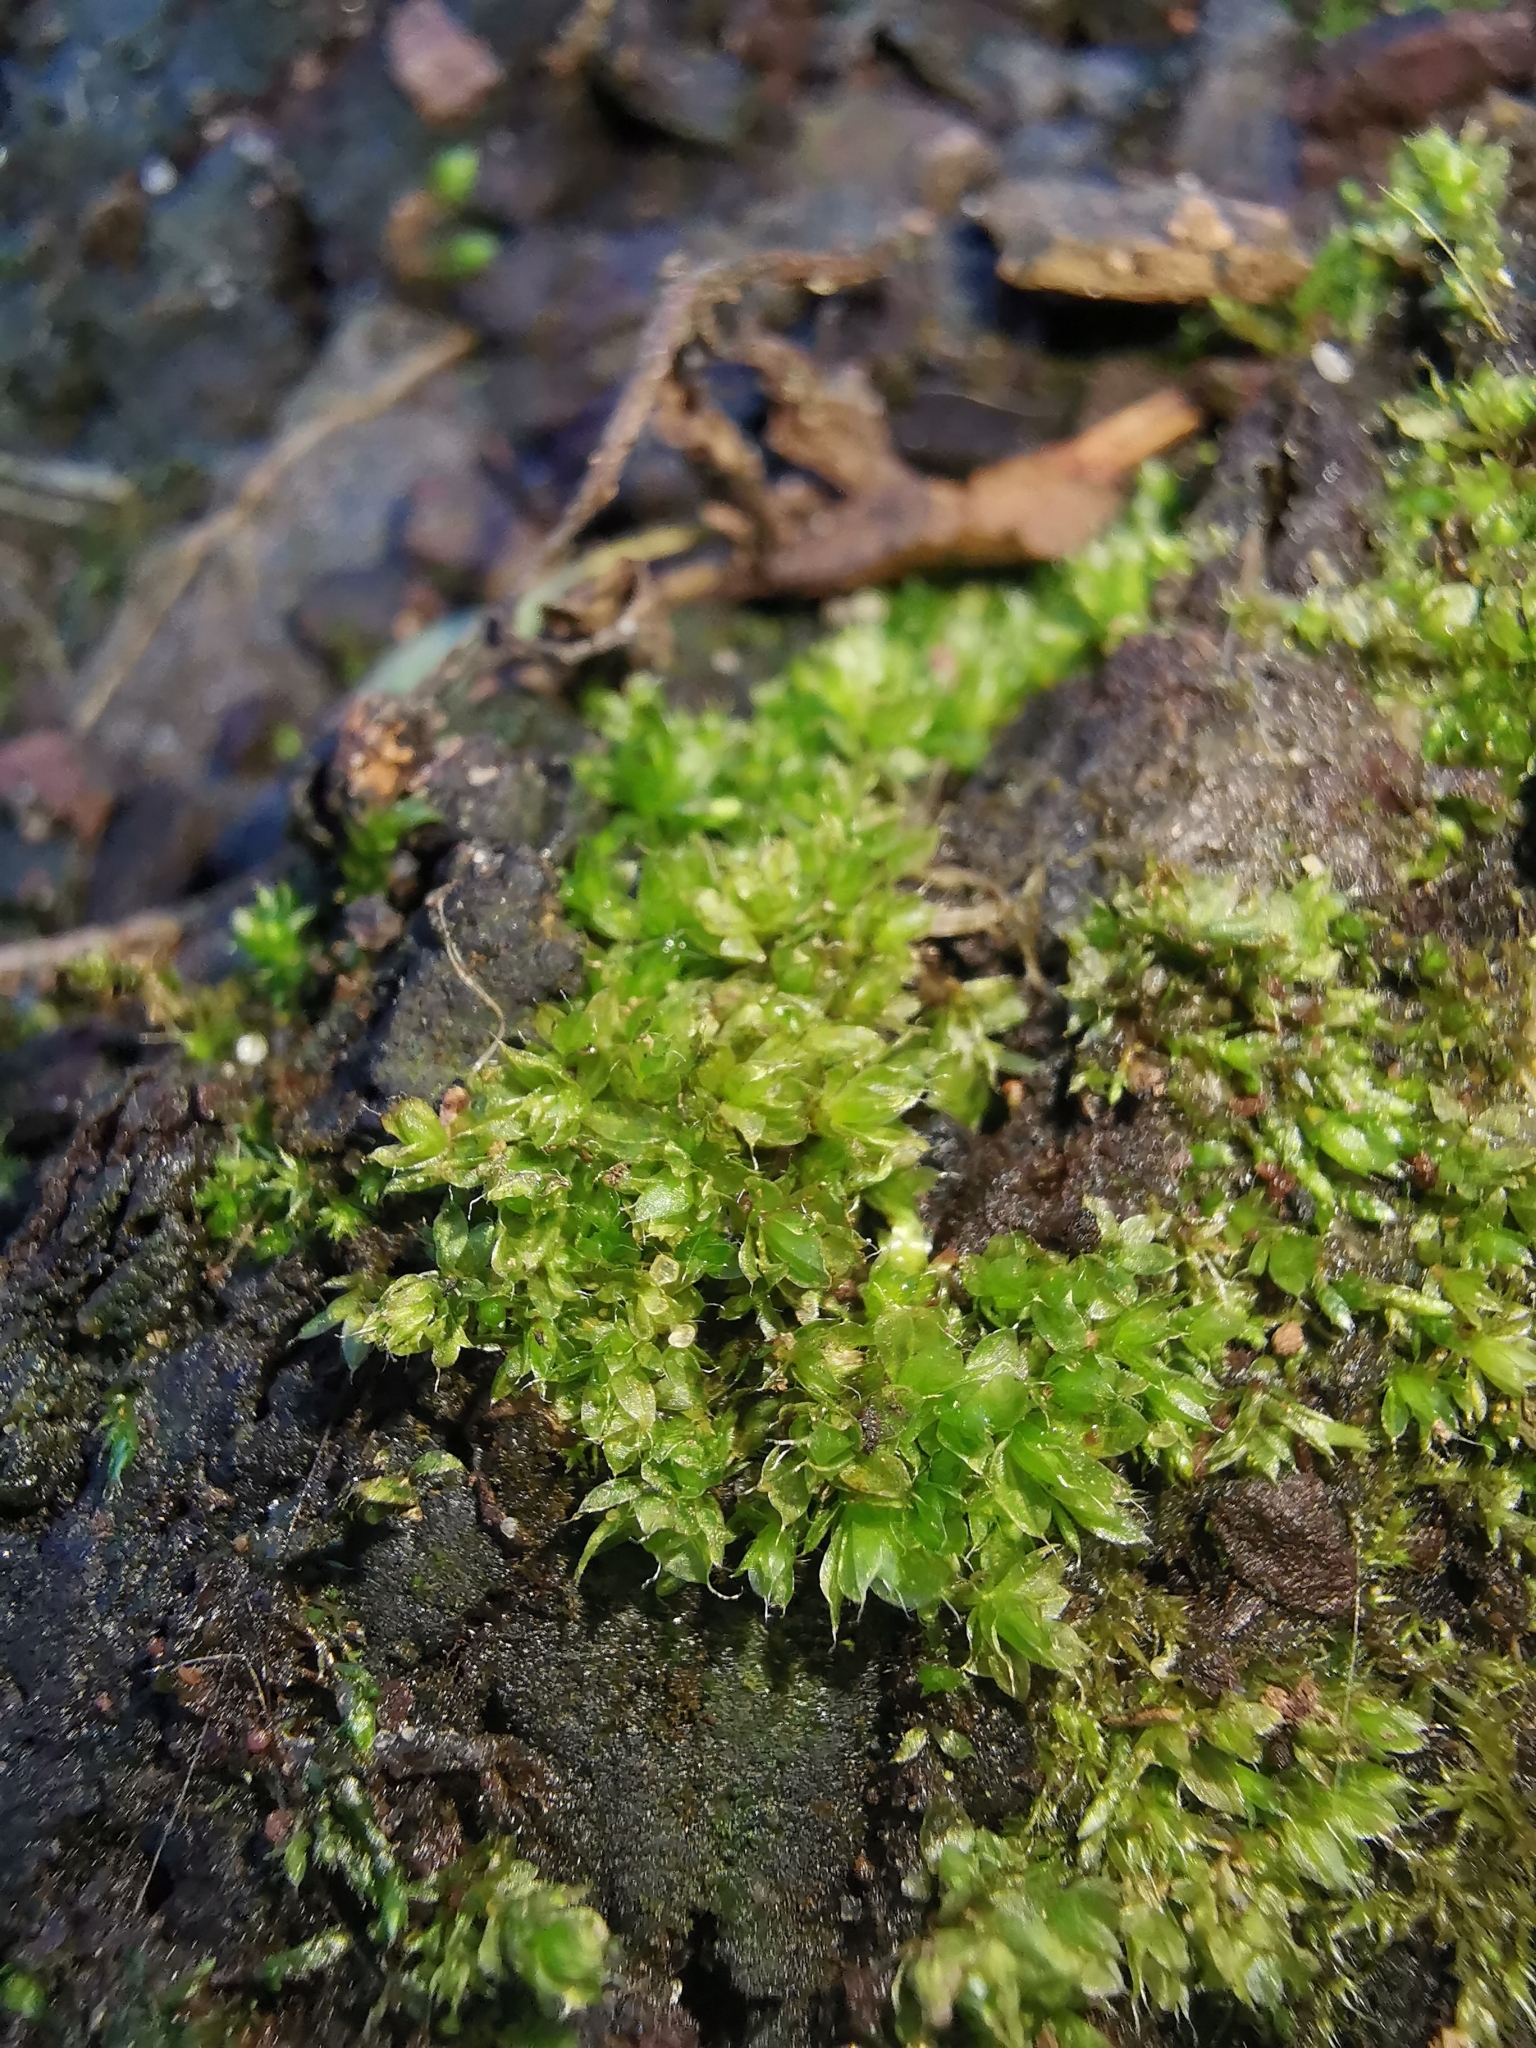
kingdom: Plantae
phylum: Bryophyta
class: Bryopsida
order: Bryales
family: Bryaceae
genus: Rosulabryum
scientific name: Rosulabryum moravicum
